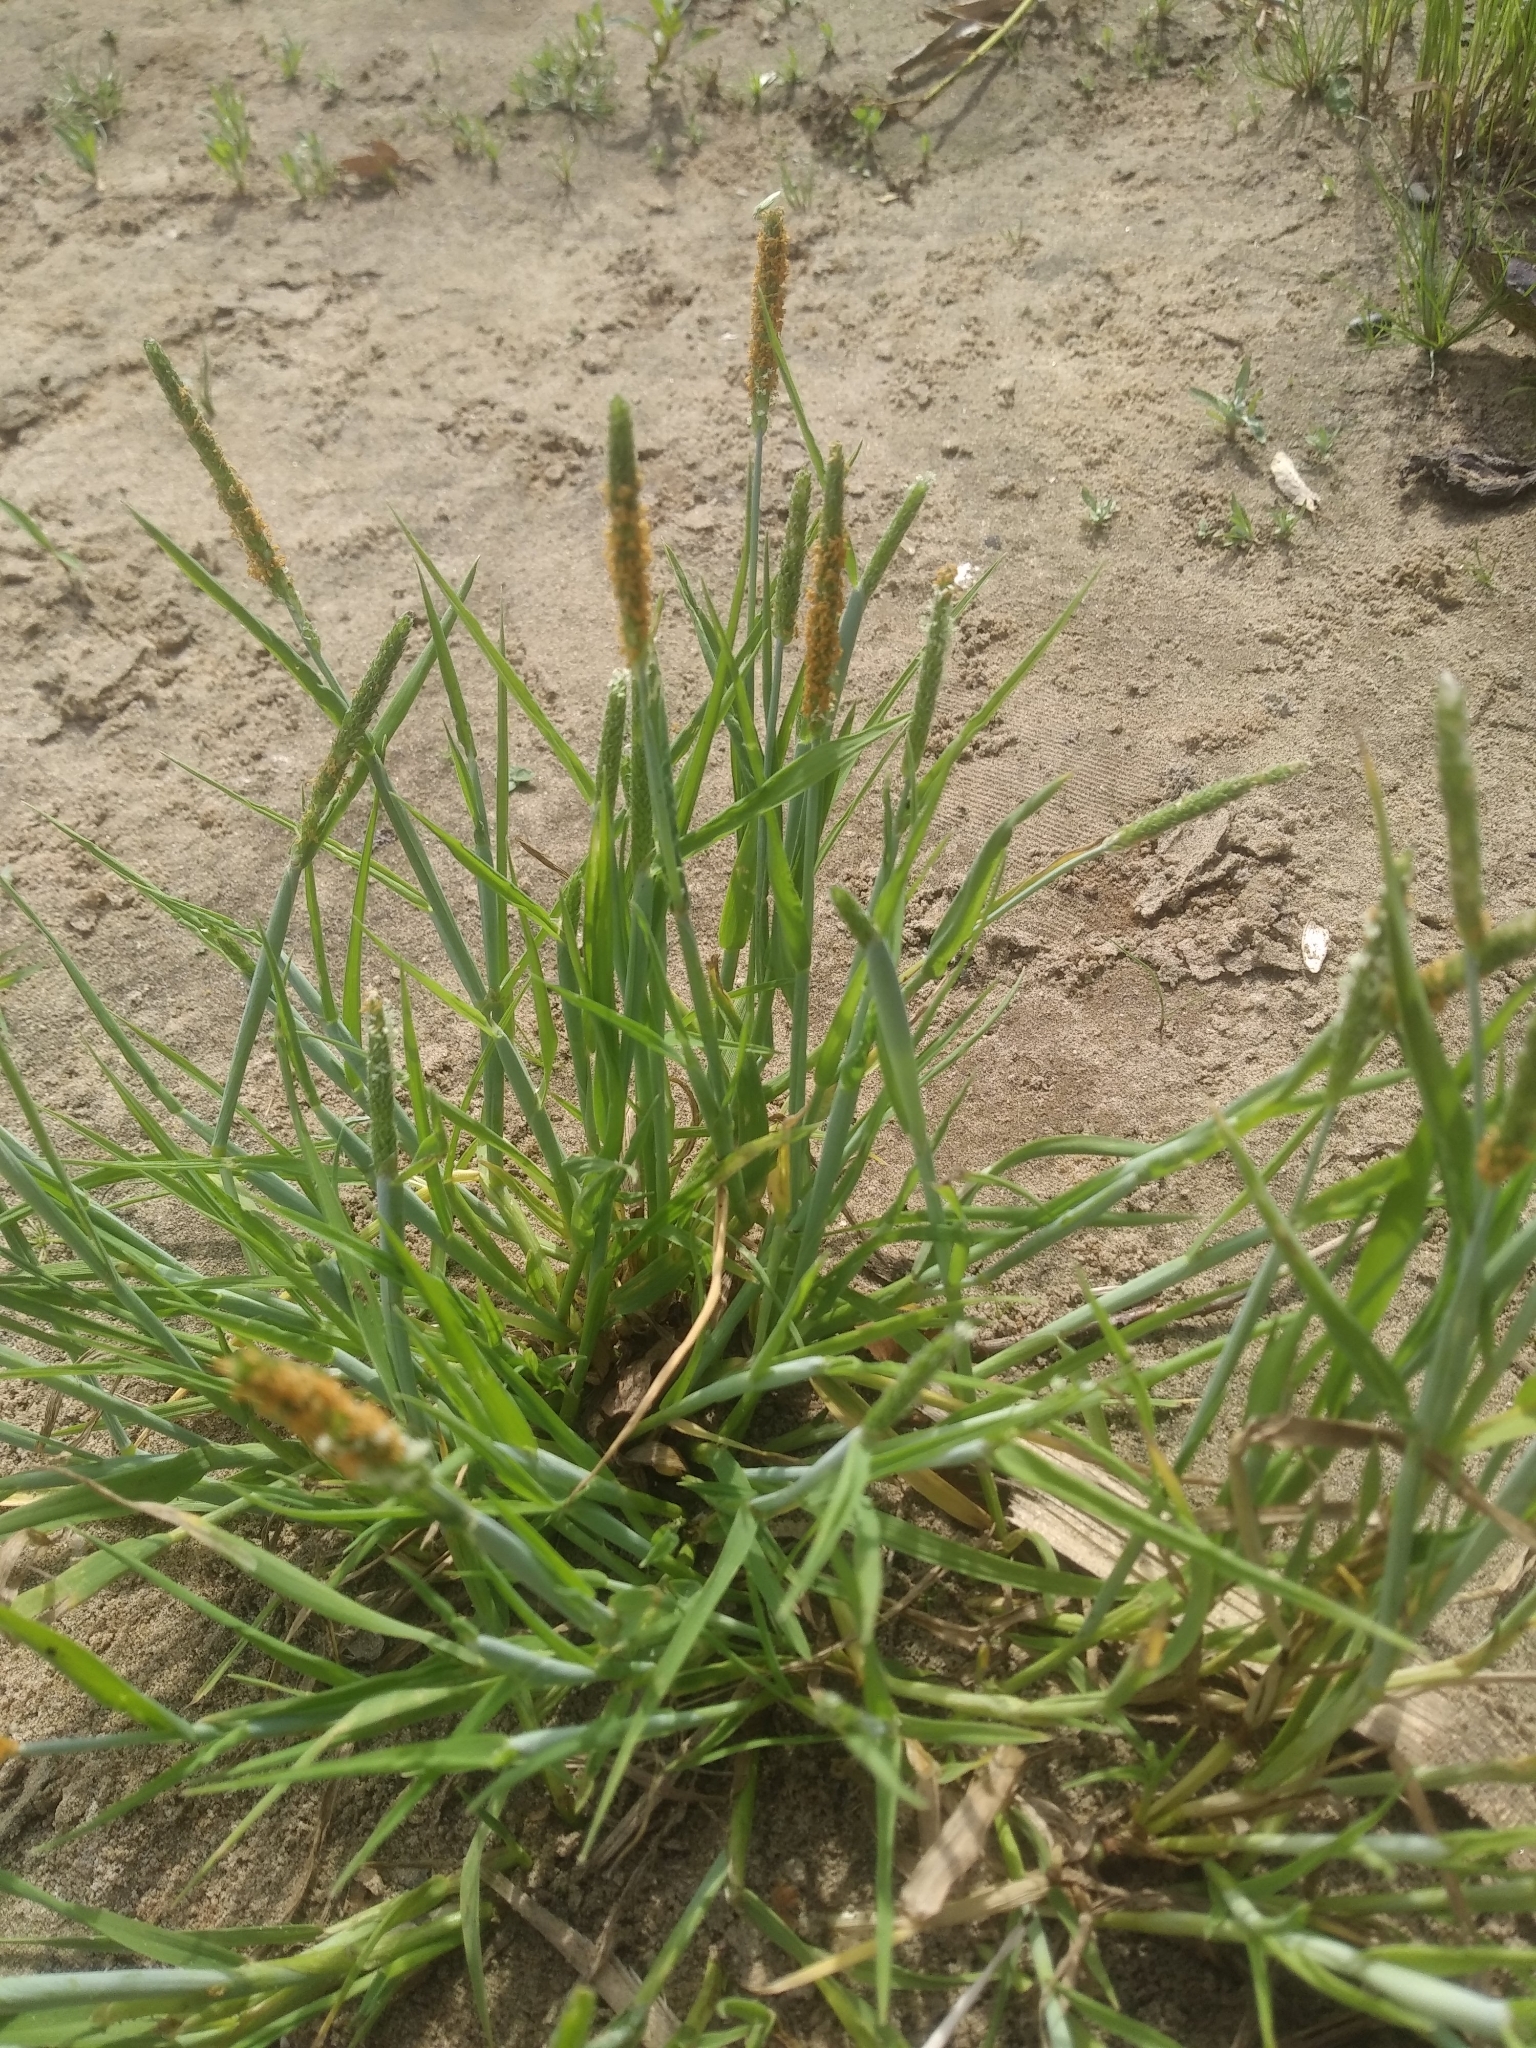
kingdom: Plantae
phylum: Tracheophyta
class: Liliopsida
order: Poales
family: Poaceae
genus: Alopecurus
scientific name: Alopecurus aequalis
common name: Orange foxtail
